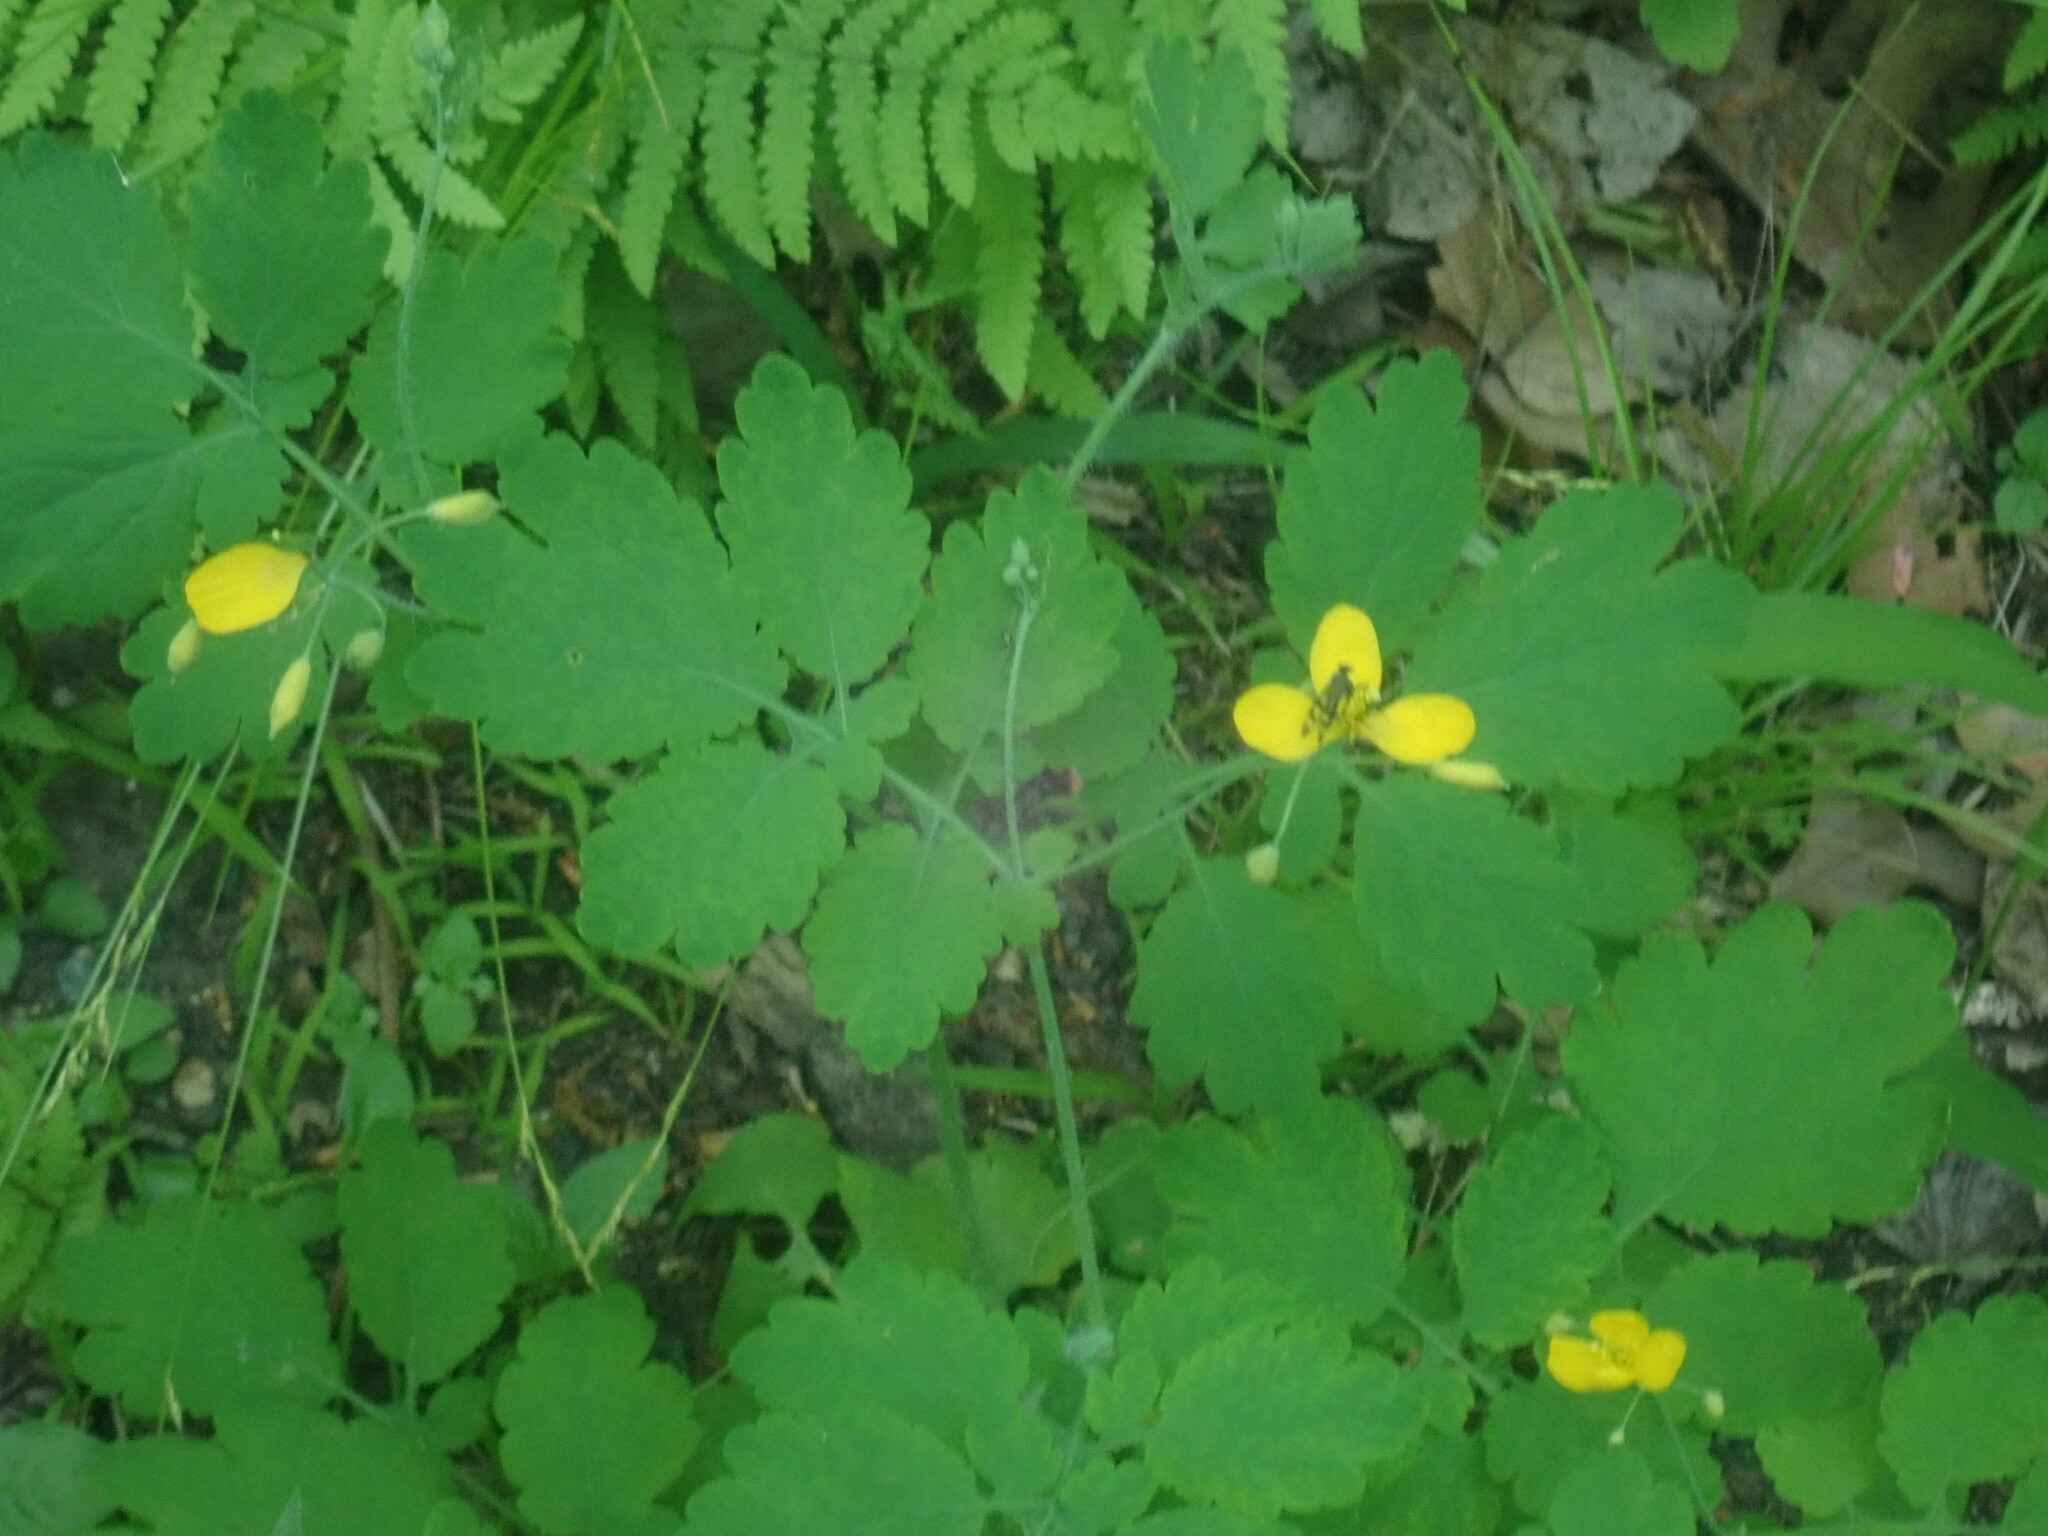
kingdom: Plantae
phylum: Tracheophyta
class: Magnoliopsida
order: Ranunculales
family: Papaveraceae
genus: Chelidonium
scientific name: Chelidonium majus
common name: Greater celandine
